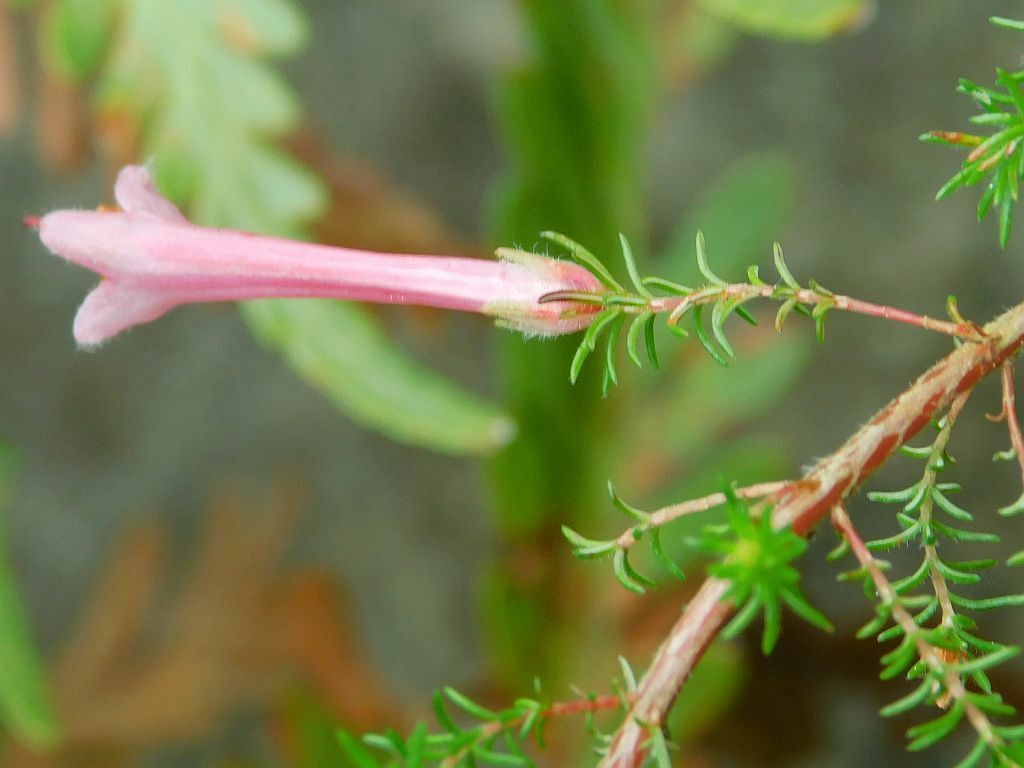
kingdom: Plantae
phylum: Tracheophyta
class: Magnoliopsida
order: Ericales
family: Ericaceae
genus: Erica
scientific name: Erica curviflora
